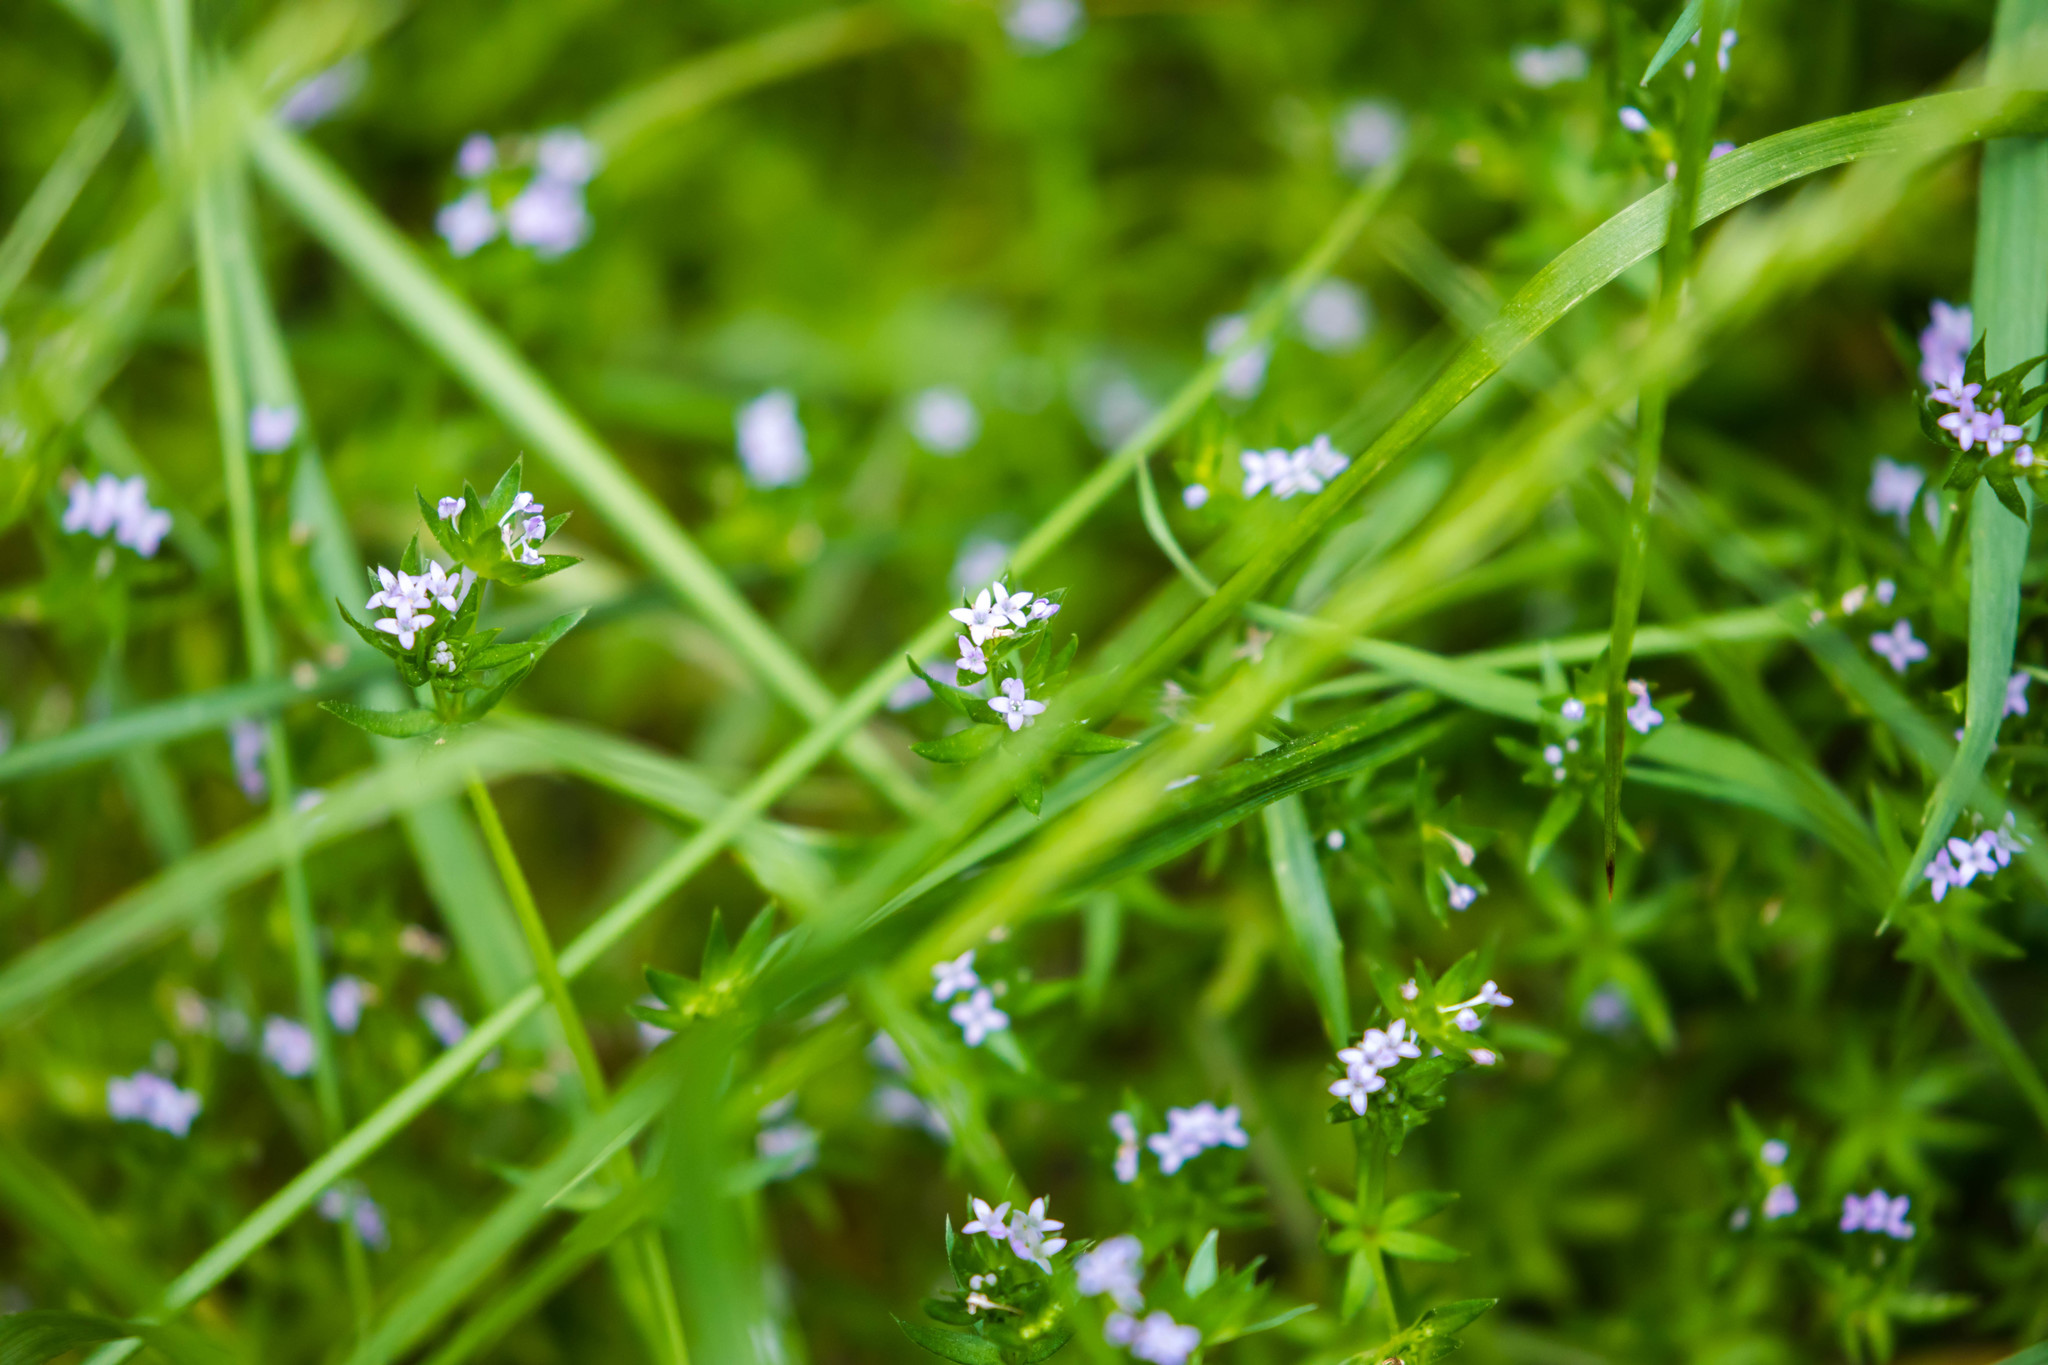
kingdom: Plantae
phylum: Tracheophyta
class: Magnoliopsida
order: Gentianales
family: Rubiaceae
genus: Sherardia
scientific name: Sherardia arvensis
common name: Field madder
